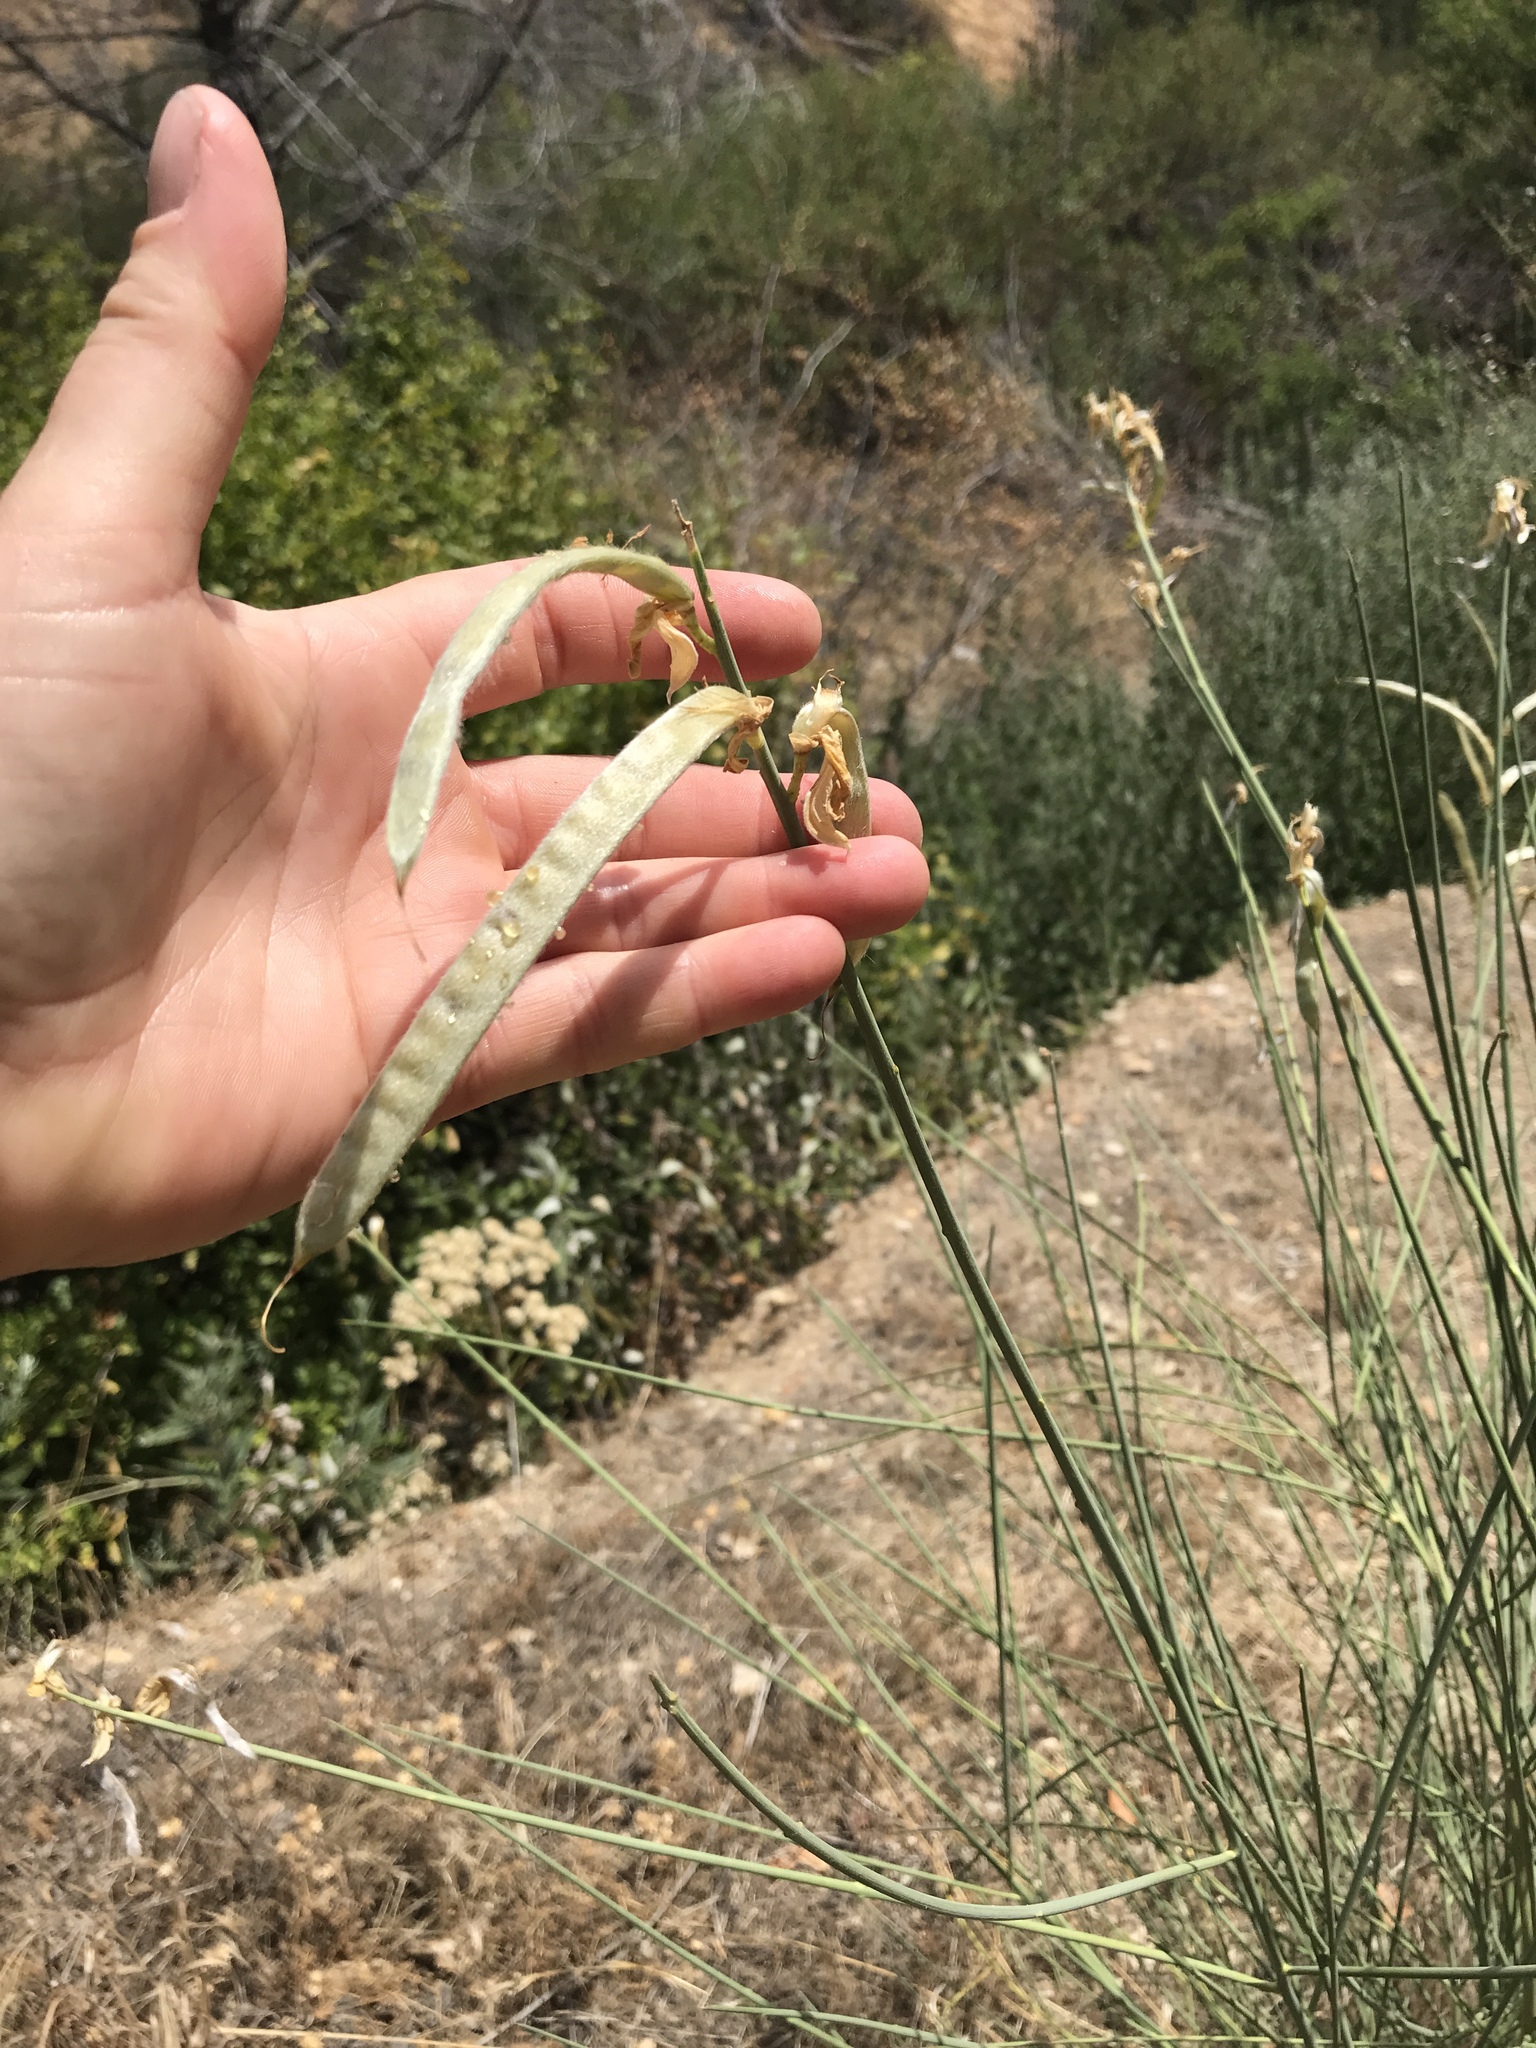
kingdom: Plantae
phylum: Tracheophyta
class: Magnoliopsida
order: Fabales
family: Fabaceae
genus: Spartium
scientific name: Spartium junceum
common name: Spanish broom
